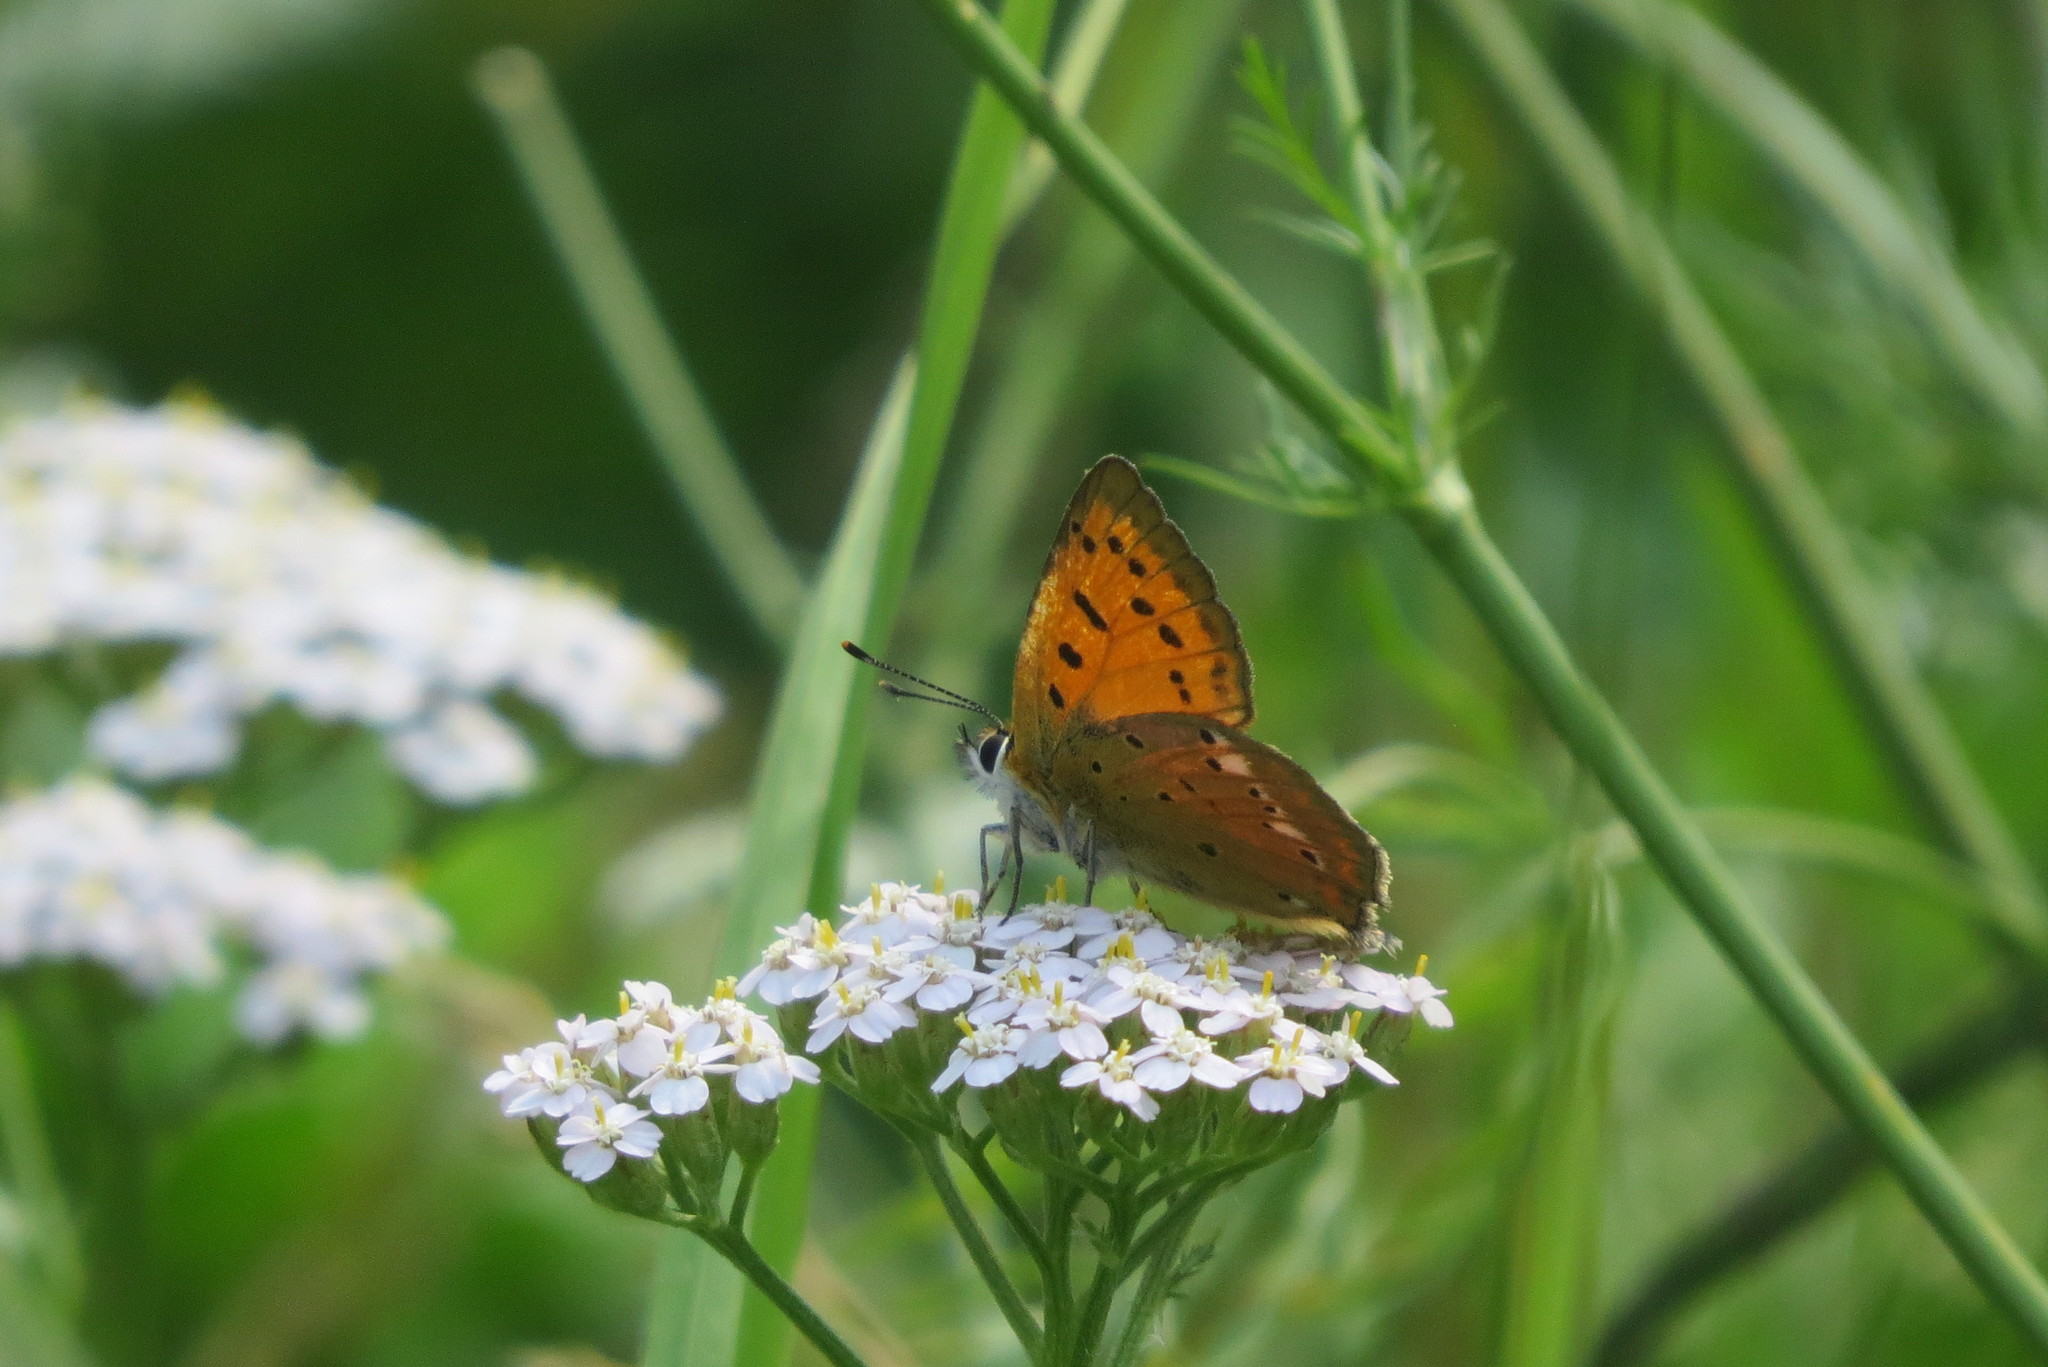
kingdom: Animalia
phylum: Arthropoda
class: Insecta
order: Lepidoptera
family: Lycaenidae
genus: Lycaena
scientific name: Lycaena virgaureae
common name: Scarce copper
